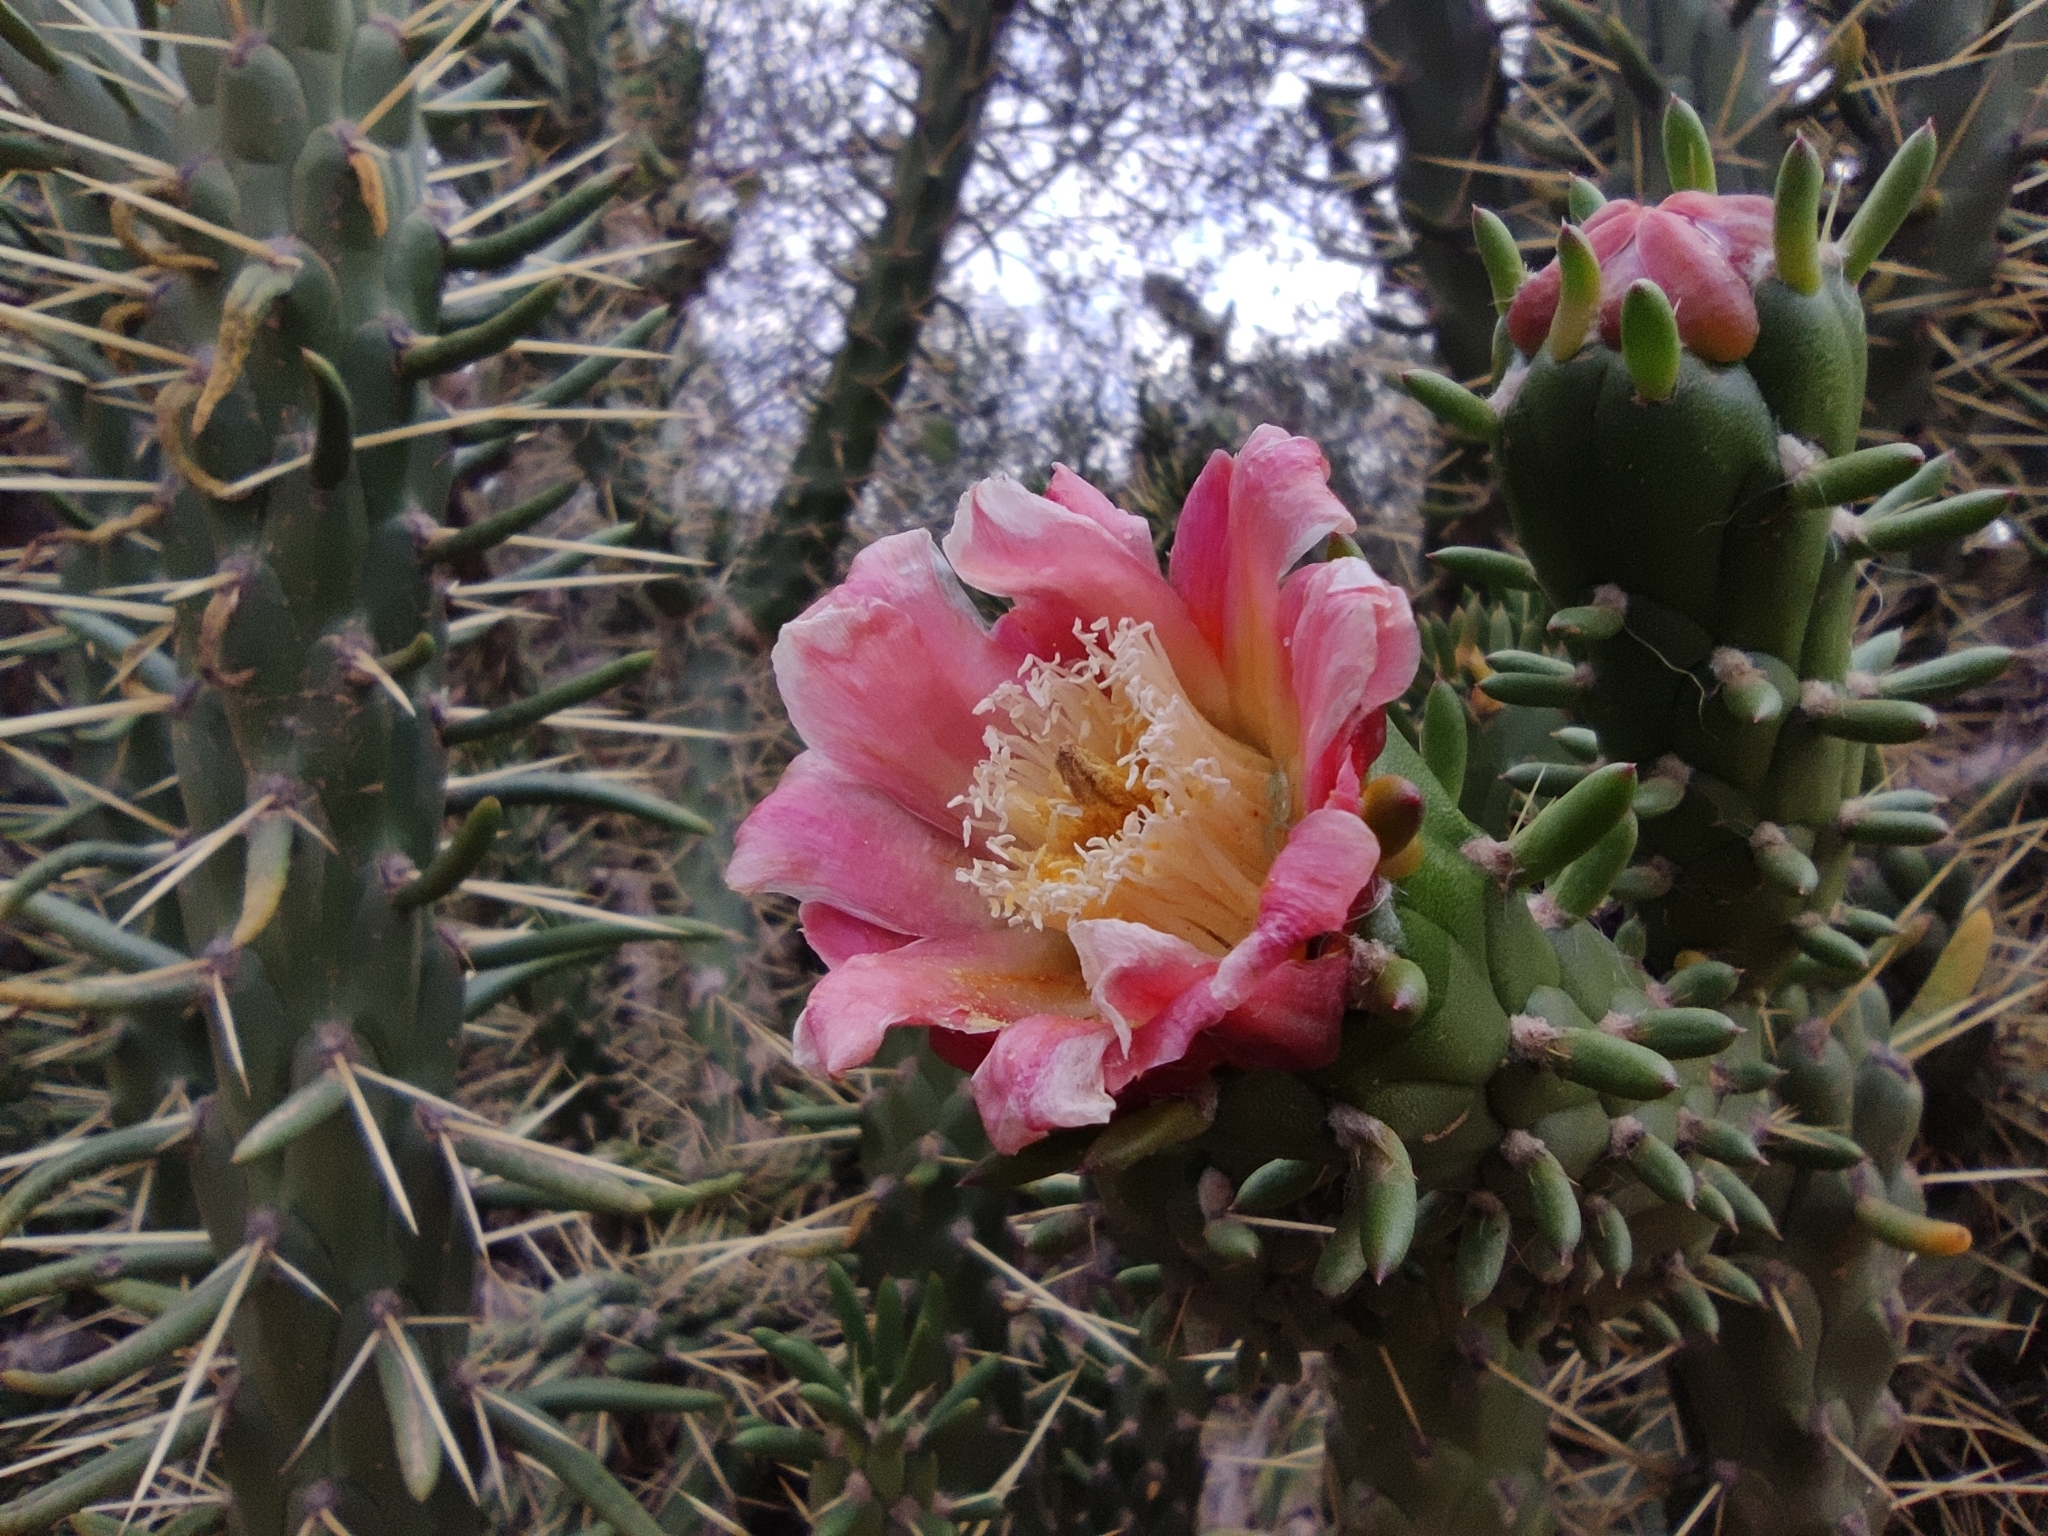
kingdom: Plantae
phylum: Tracheophyta
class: Magnoliopsida
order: Caryophyllales
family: Cactaceae
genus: Austrocylindropuntia
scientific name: Austrocylindropuntia subulata
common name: Eve's needle cactus
